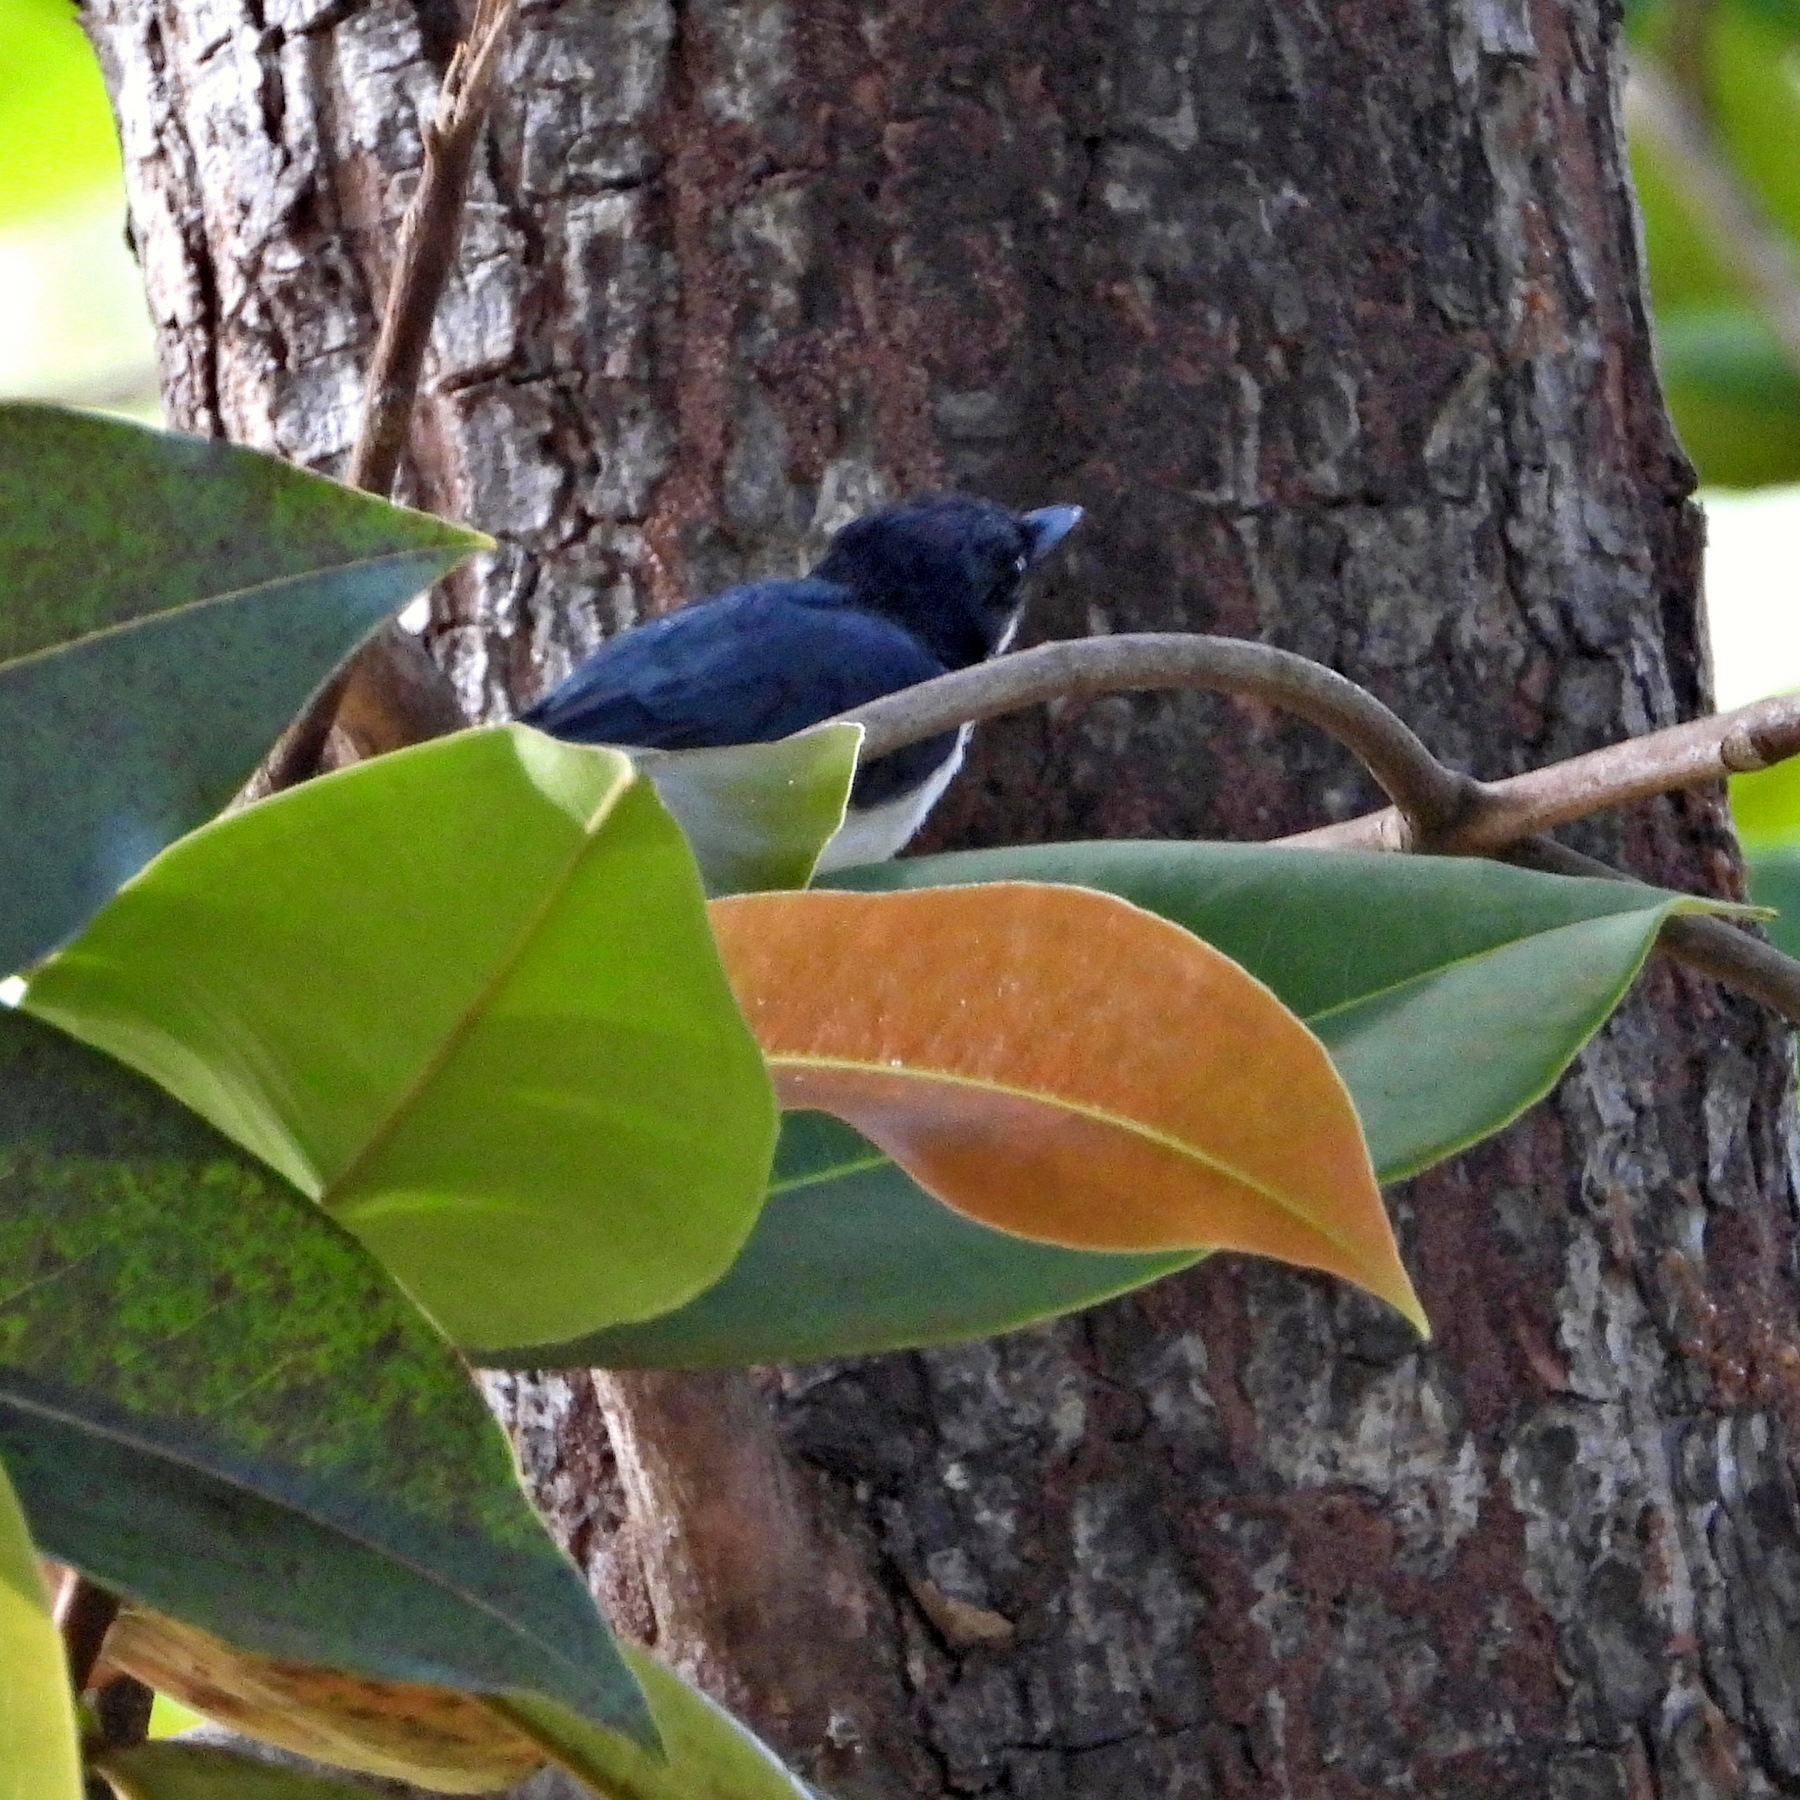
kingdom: Animalia
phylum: Chordata
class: Aves
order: Passeriformes
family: Monarchidae
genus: Myiagra
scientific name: Myiagra galeata
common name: Moluccan flycatcher
